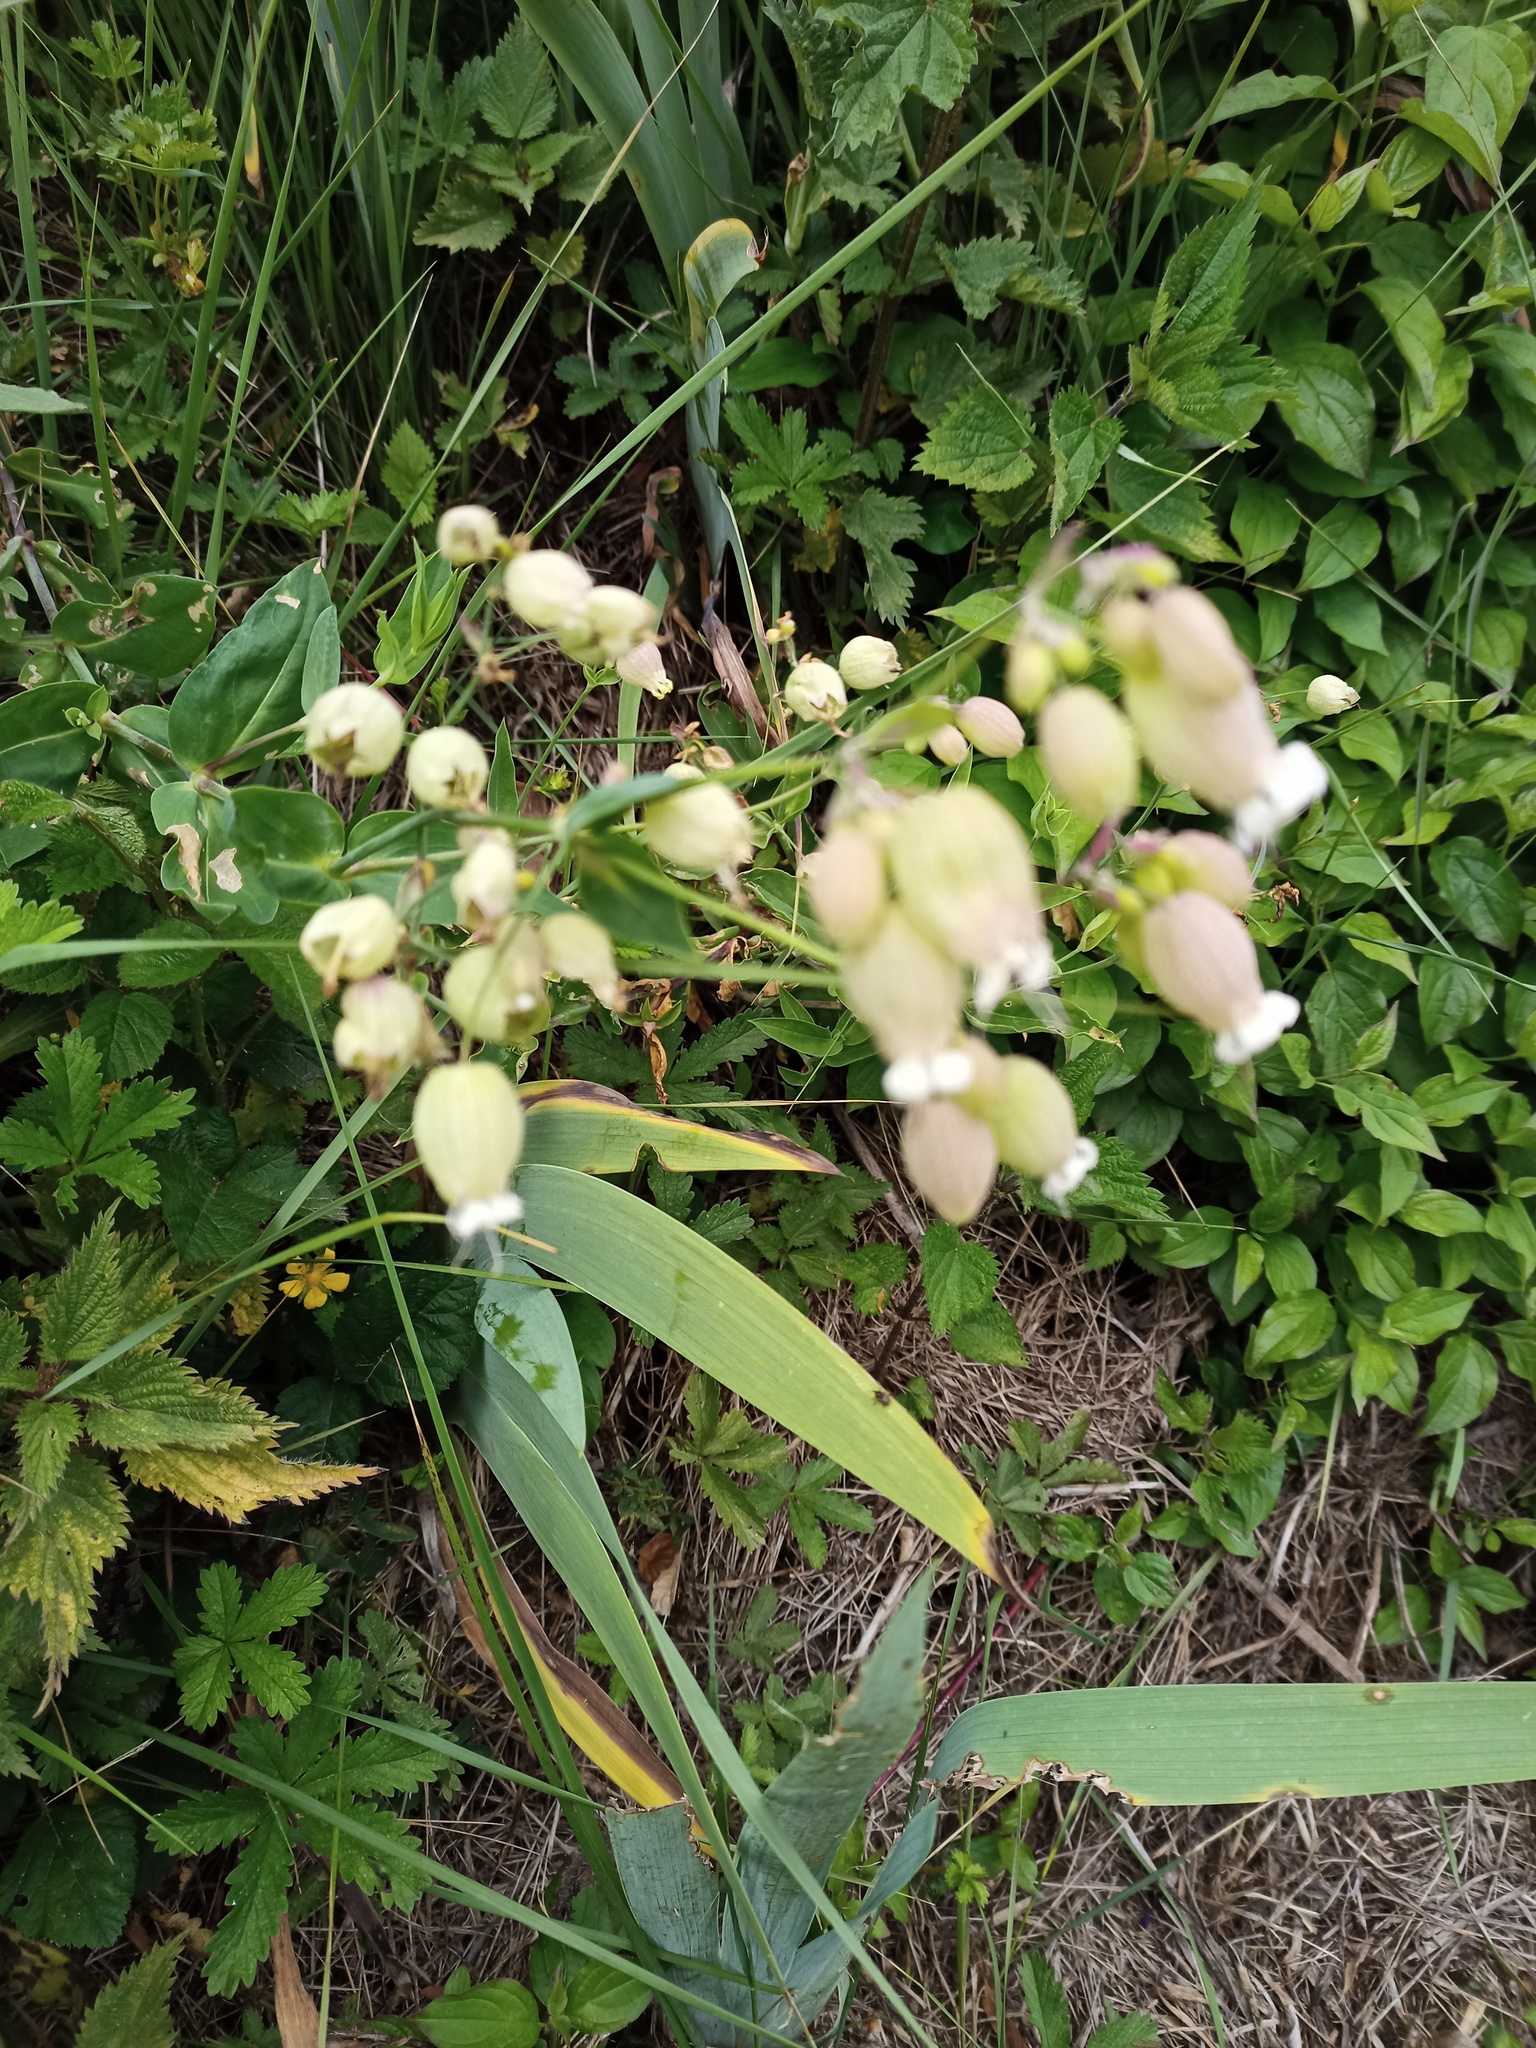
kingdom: Plantae
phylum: Tracheophyta
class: Magnoliopsida
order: Caryophyllales
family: Caryophyllaceae
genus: Silene
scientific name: Silene vulgaris
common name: Bladder campion
